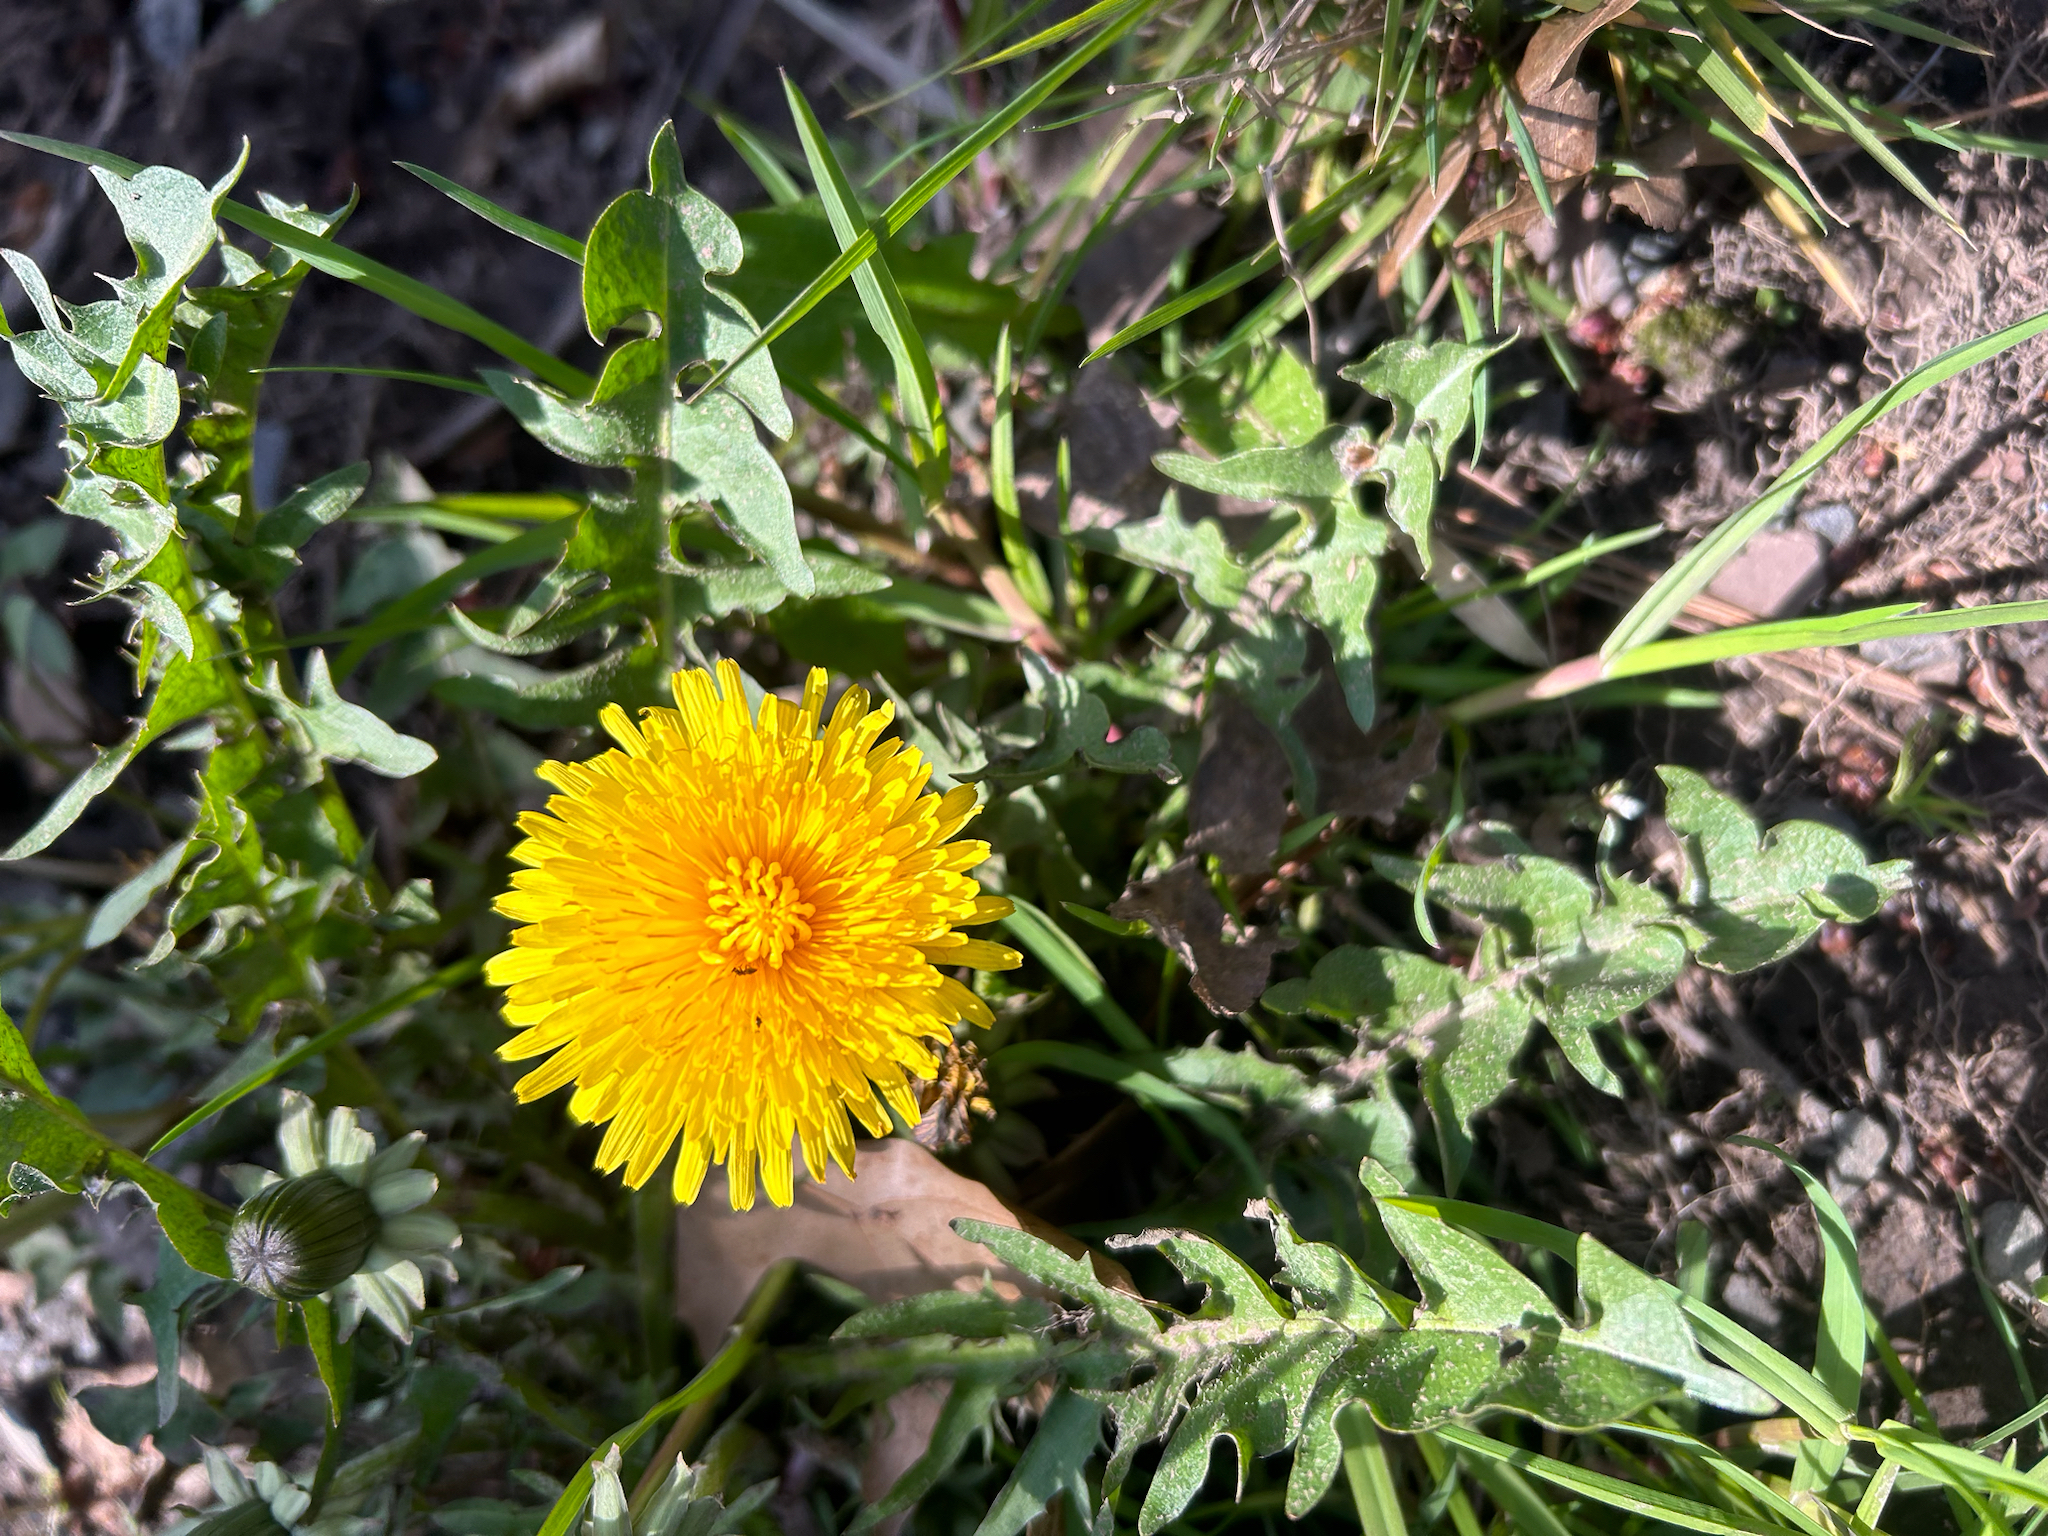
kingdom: Plantae
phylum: Tracheophyta
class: Magnoliopsida
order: Asterales
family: Asteraceae
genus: Taraxacum
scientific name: Taraxacum
